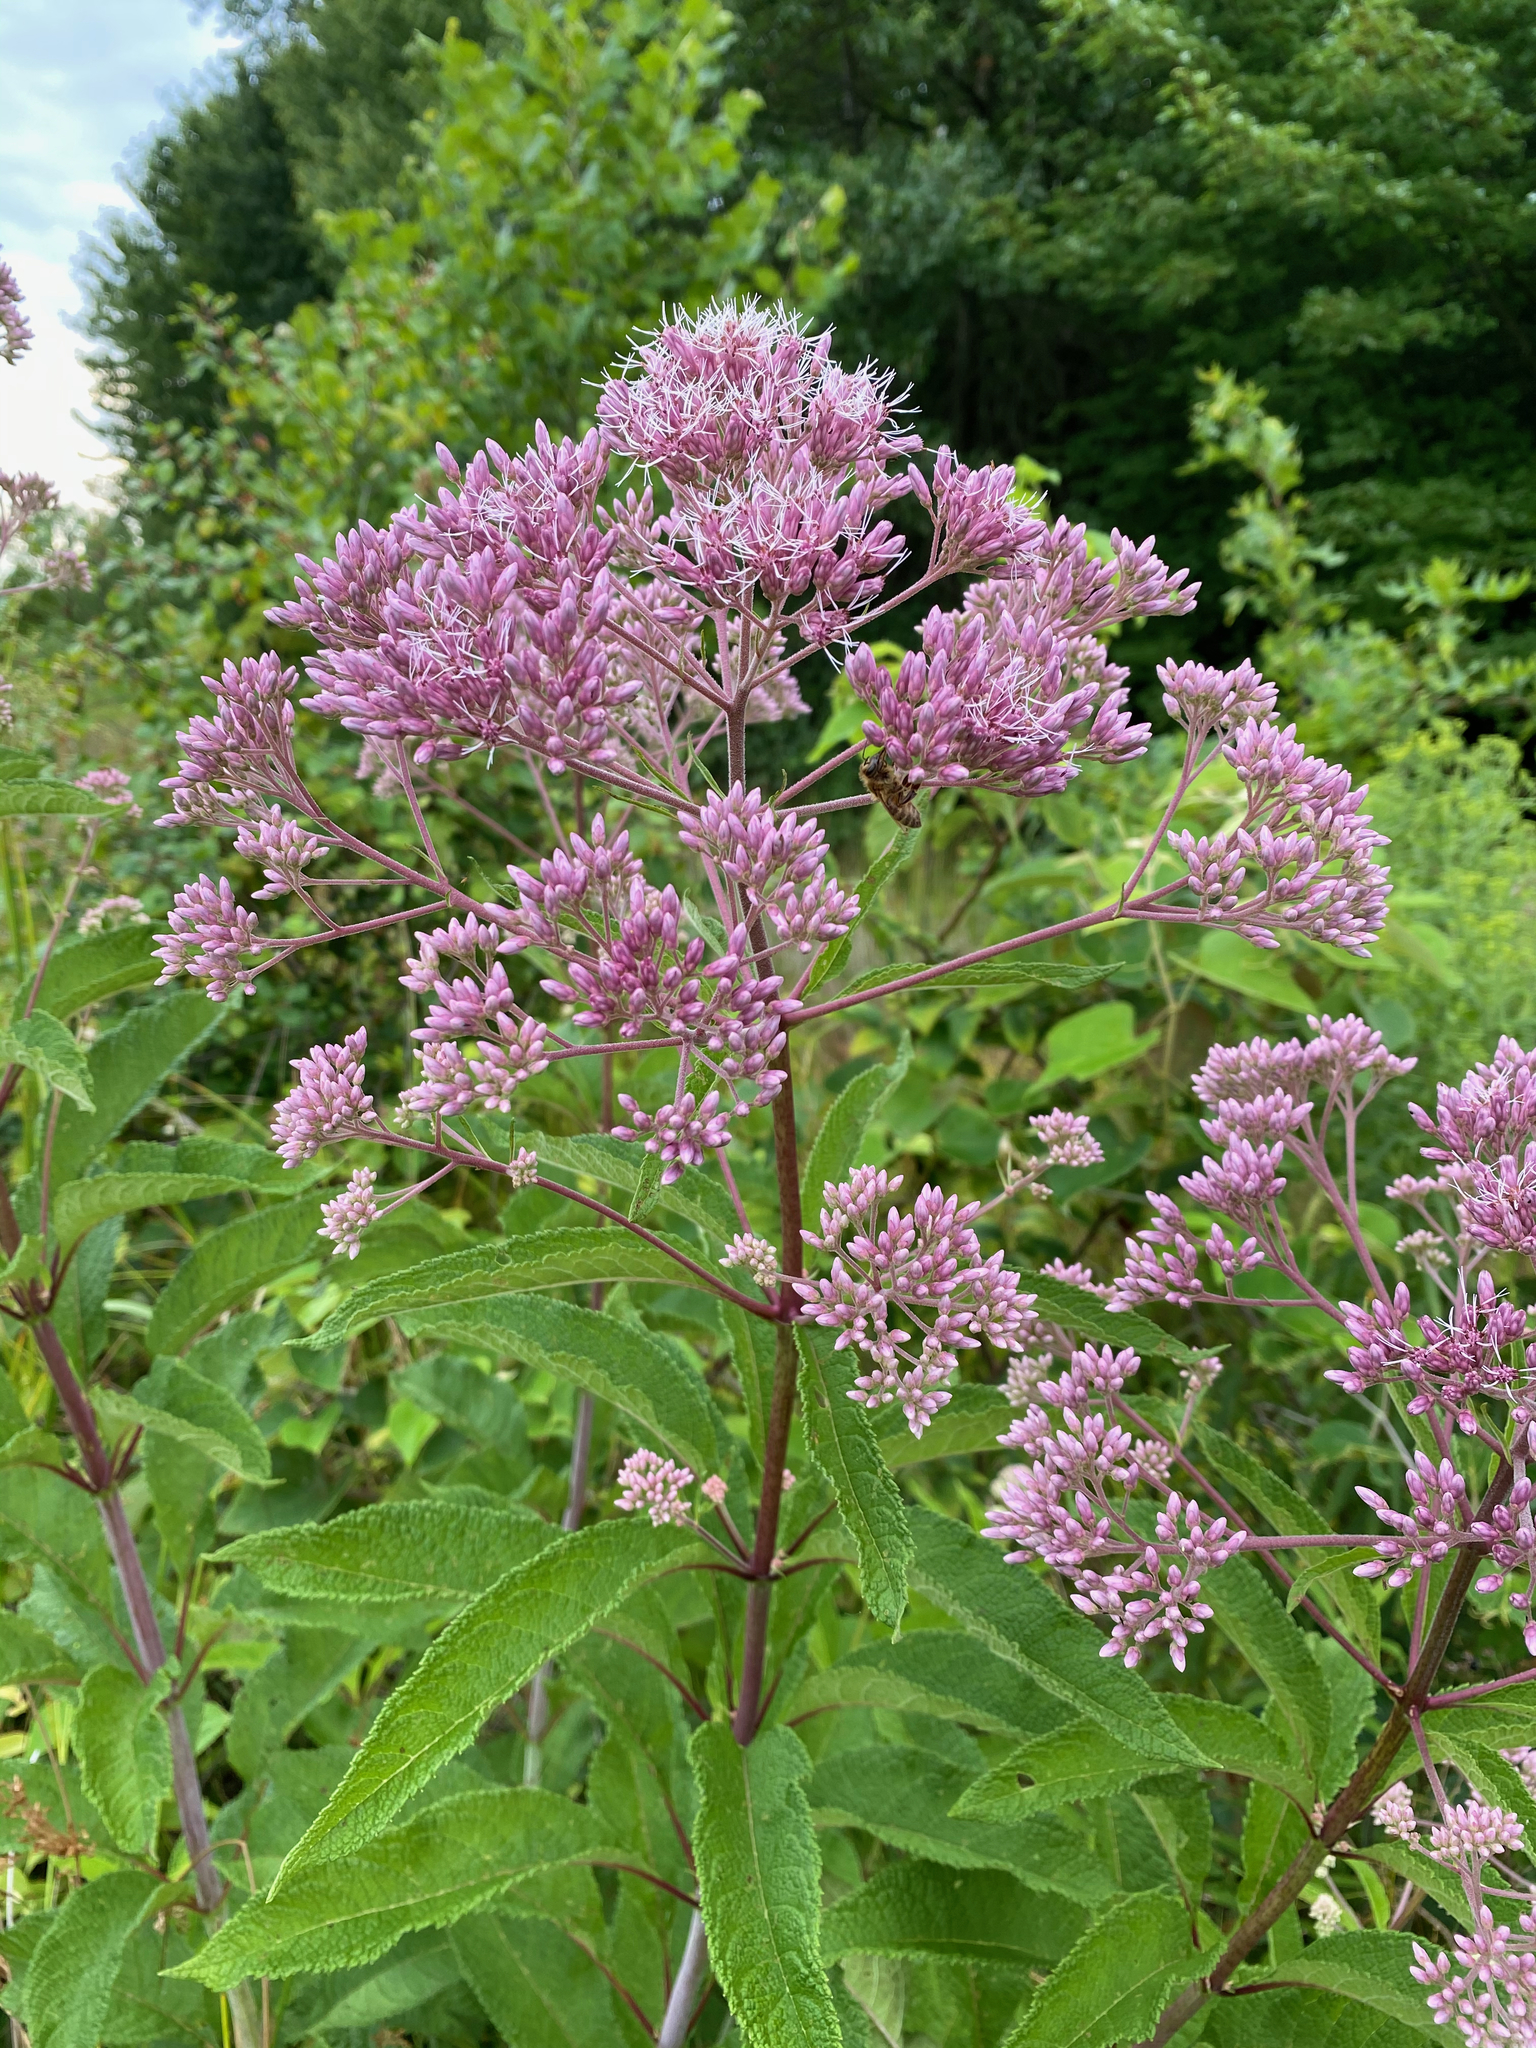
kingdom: Plantae
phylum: Tracheophyta
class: Magnoliopsida
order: Asterales
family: Asteraceae
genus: Eutrochium
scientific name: Eutrochium fistulosum
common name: Trumpetweed
